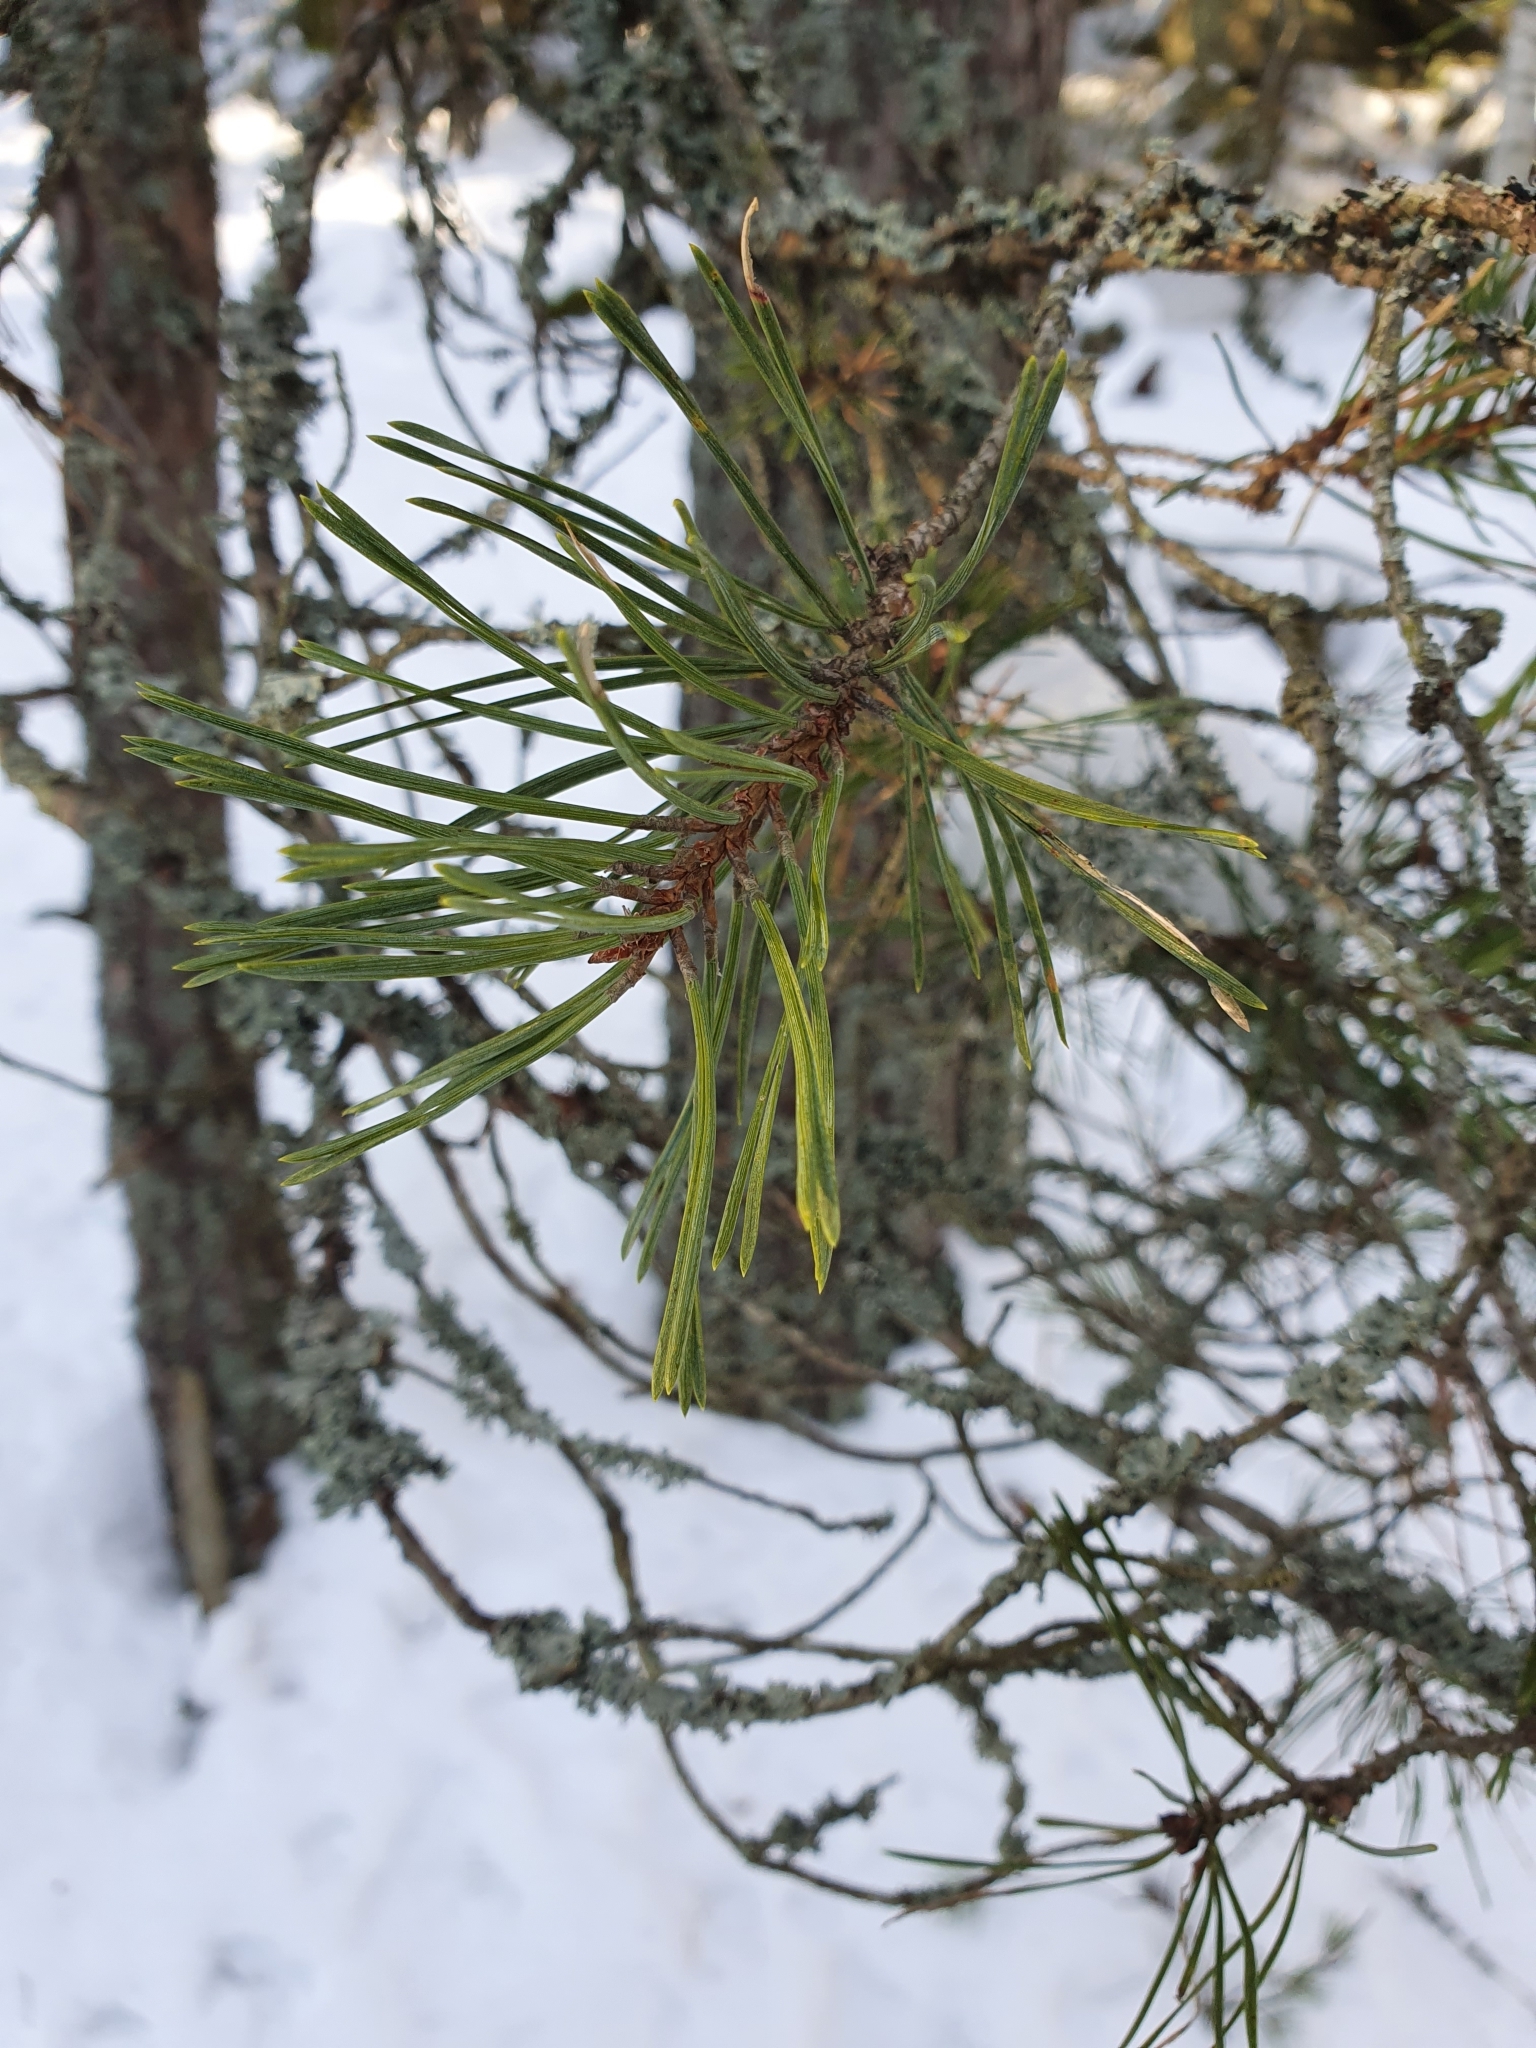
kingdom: Plantae
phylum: Tracheophyta
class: Pinopsida
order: Pinales
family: Pinaceae
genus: Pinus
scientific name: Pinus sylvestris
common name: Scots pine
